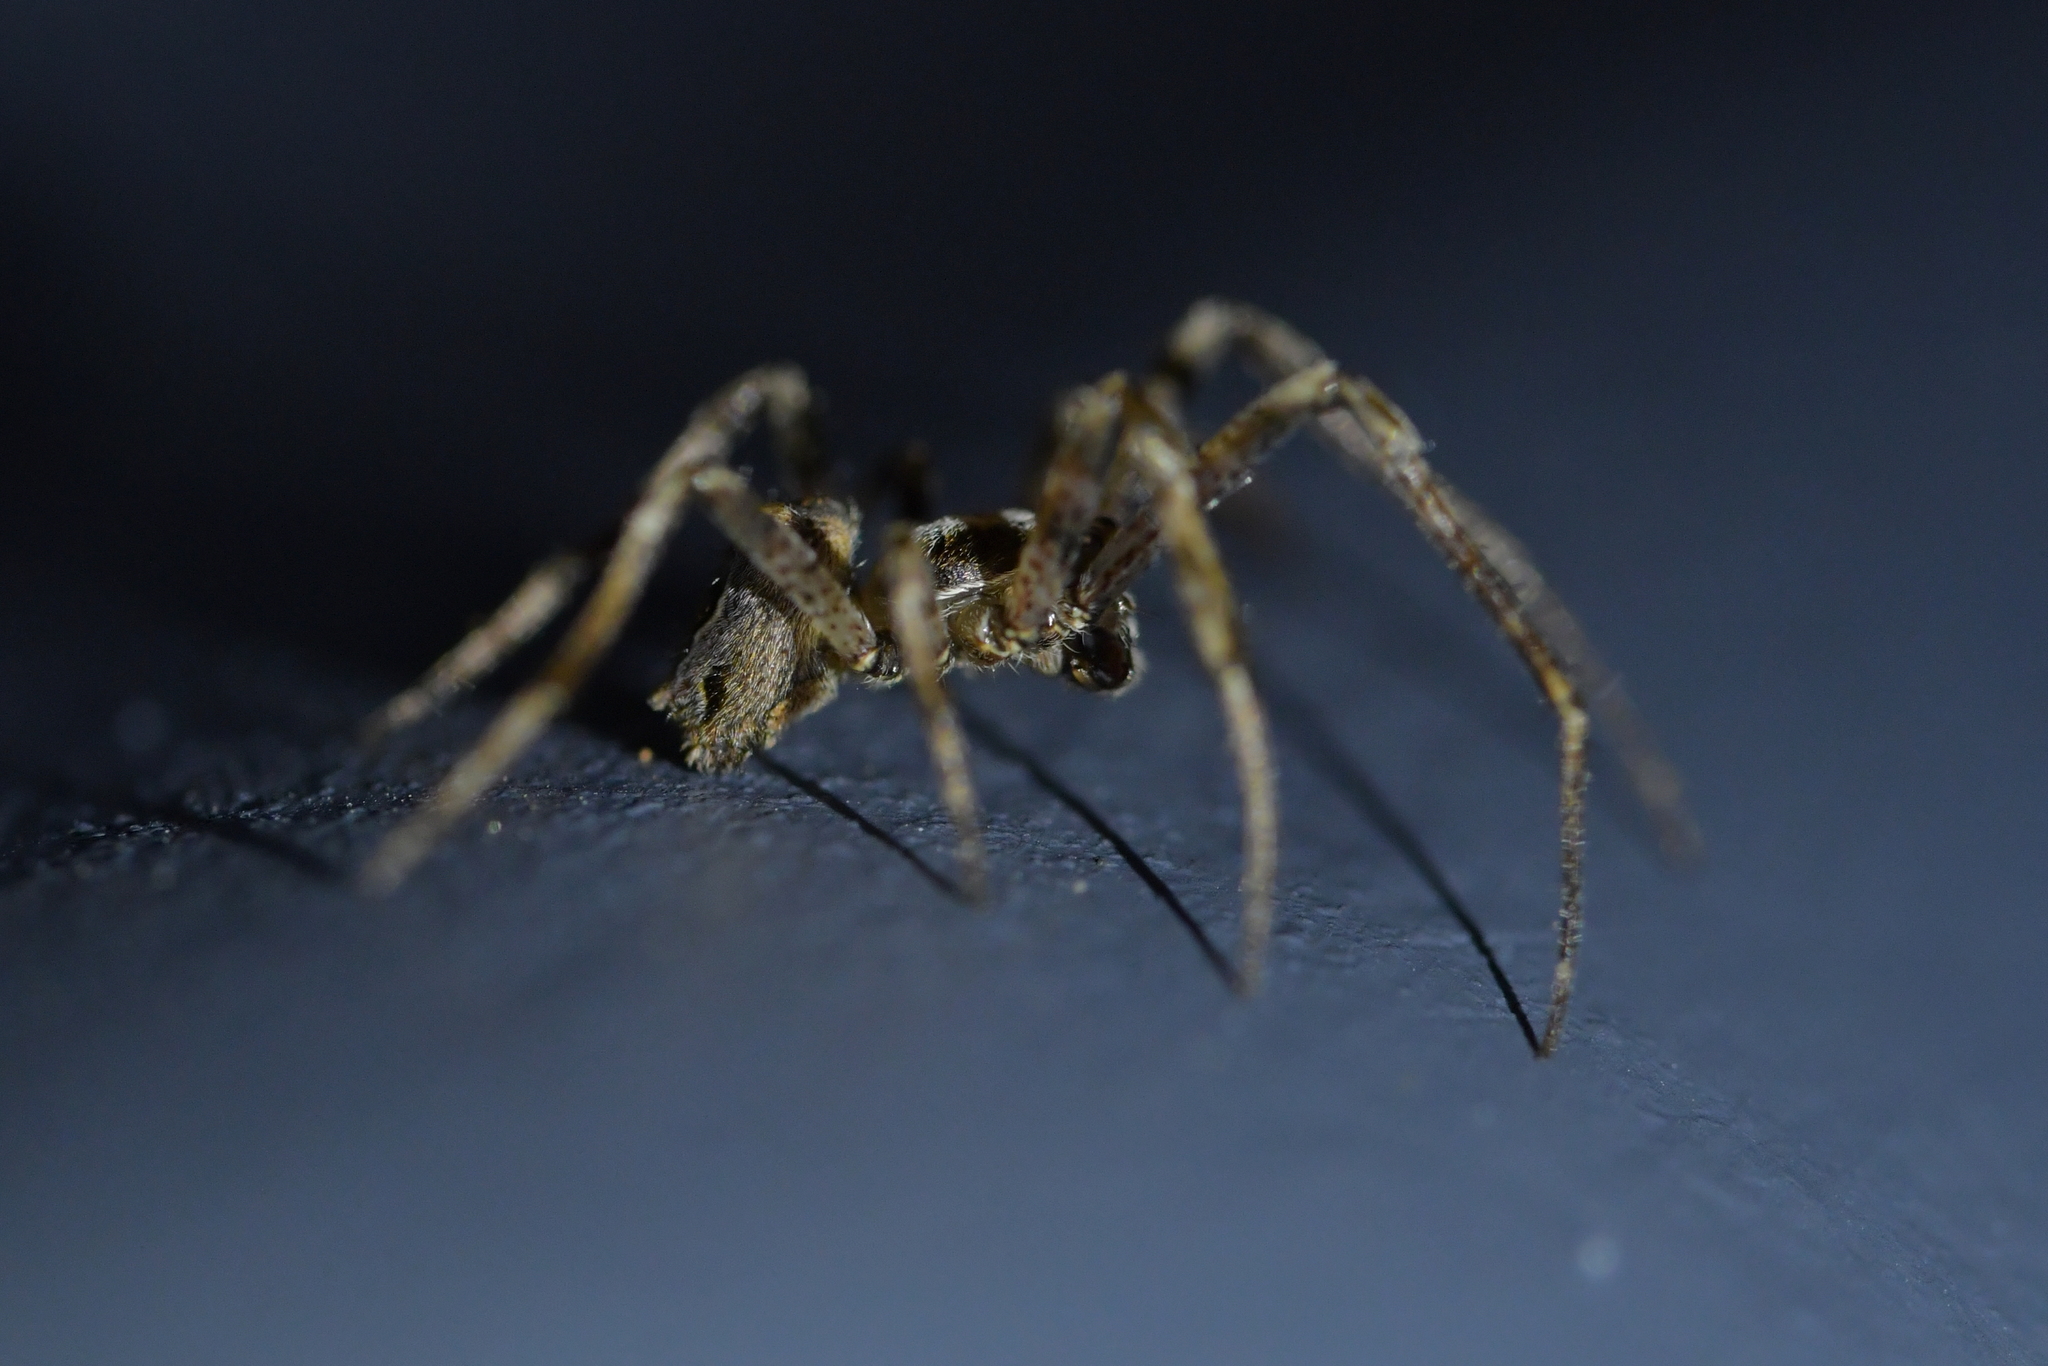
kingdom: Animalia
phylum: Arthropoda
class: Arachnida
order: Araneae
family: Araneidae
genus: Novakiella
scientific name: Novakiella trituberculosa
